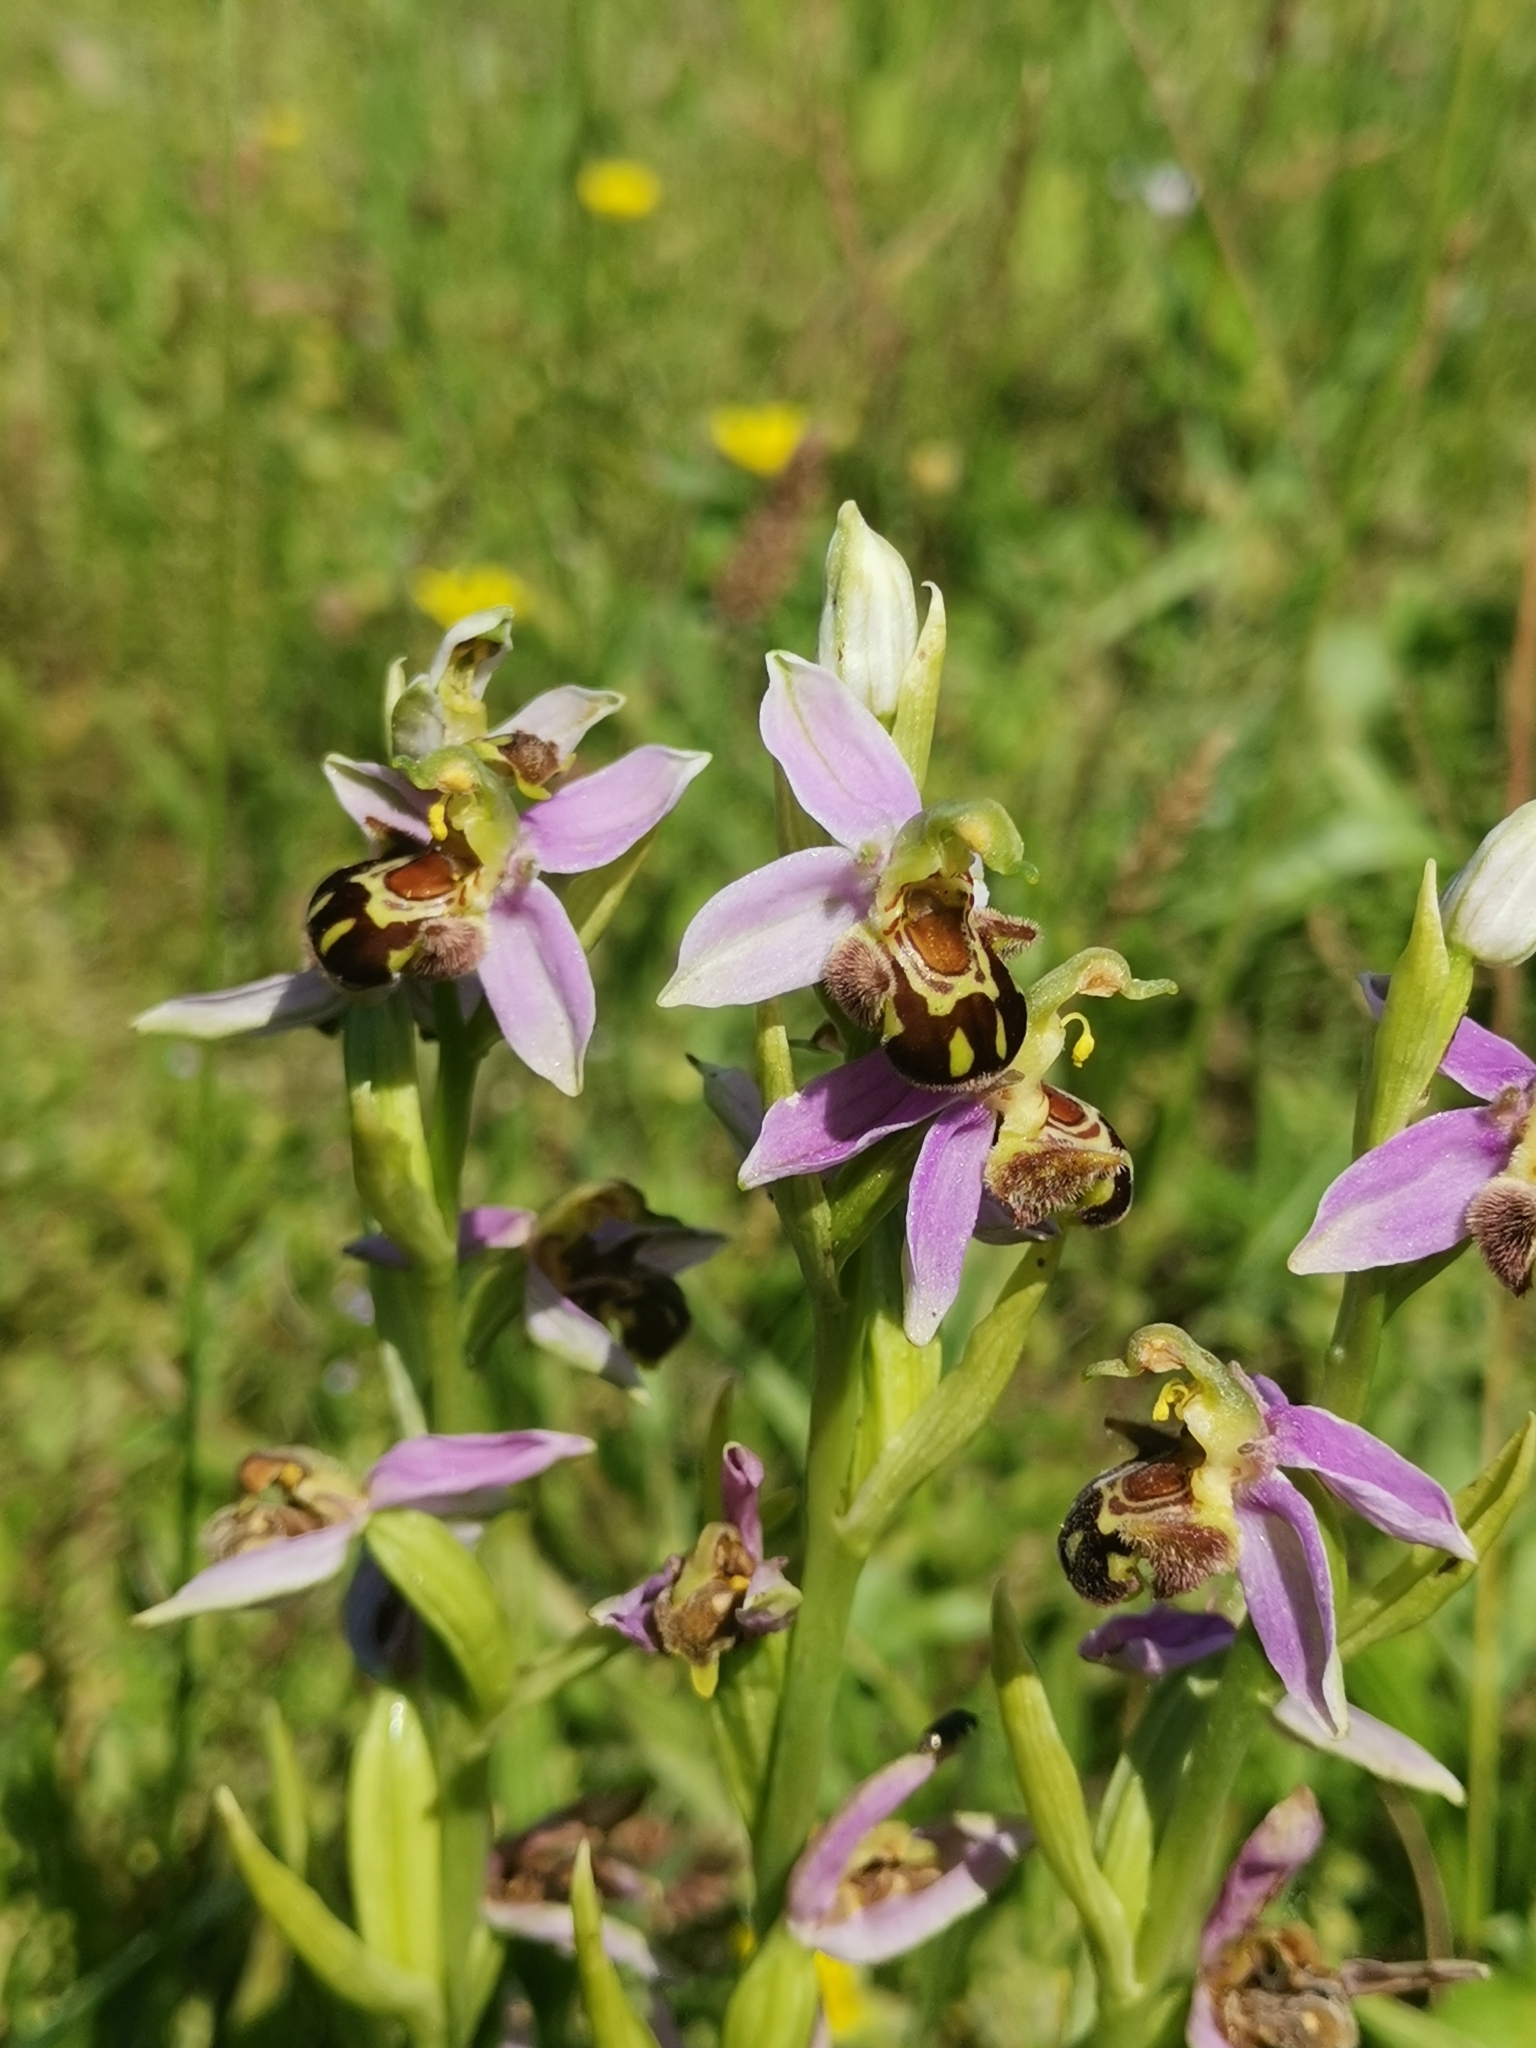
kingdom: Plantae
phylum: Tracheophyta
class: Liliopsida
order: Asparagales
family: Orchidaceae
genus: Ophrys
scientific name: Ophrys apifera
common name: Bee orchid
